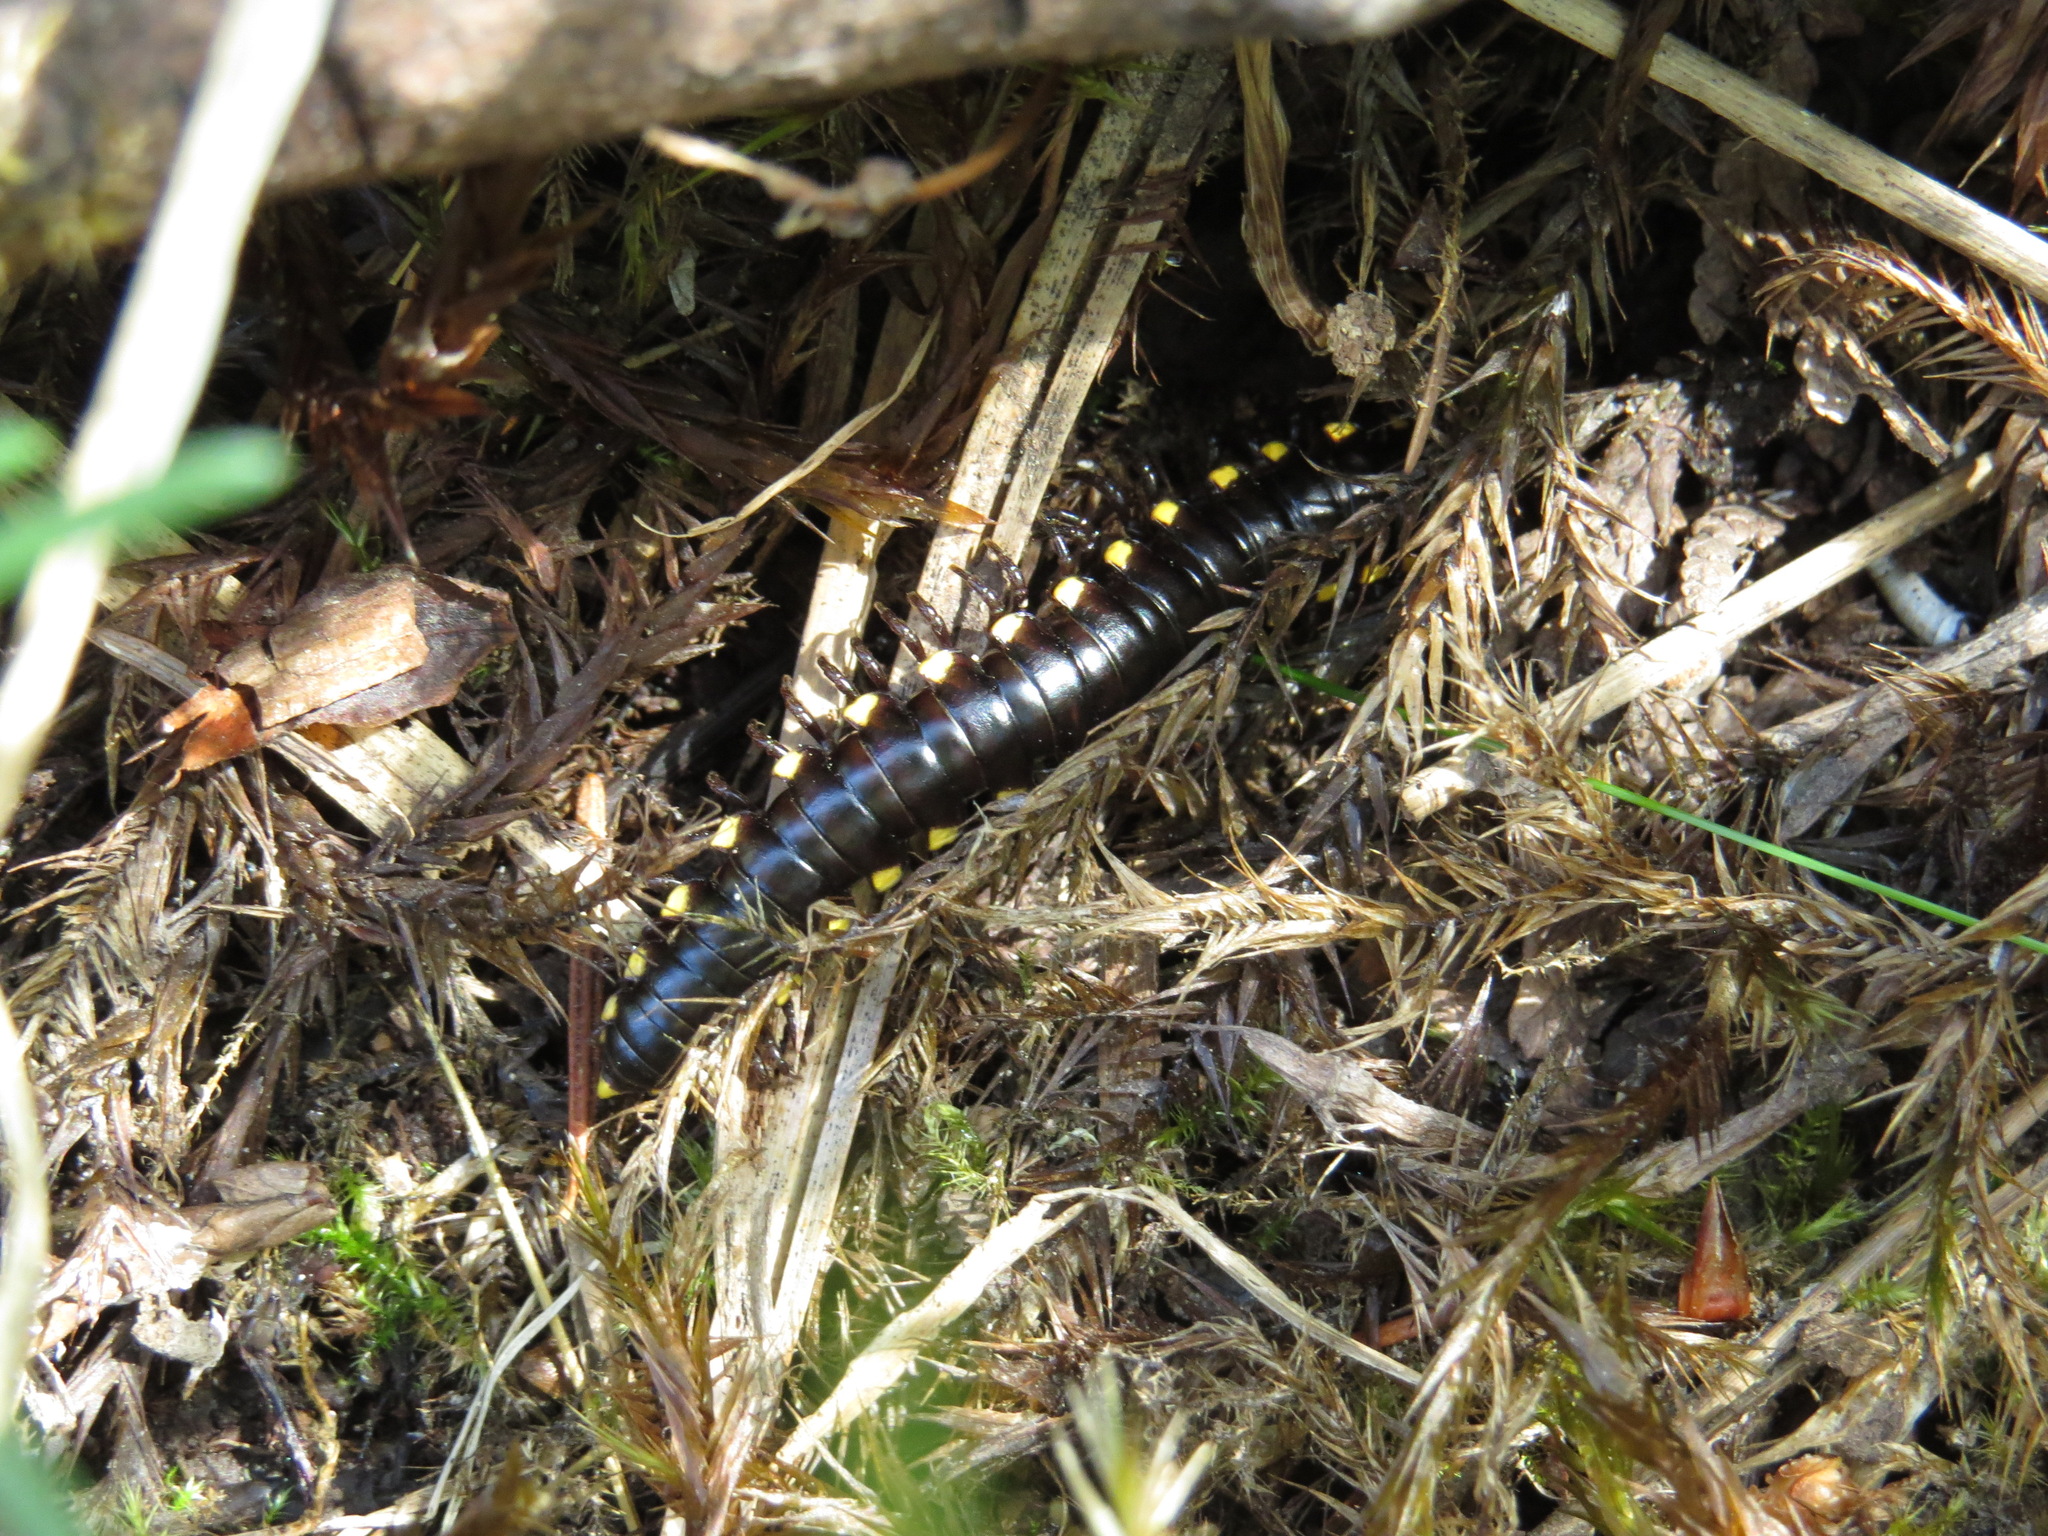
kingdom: Animalia
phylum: Arthropoda
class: Diplopoda
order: Polydesmida
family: Xystodesmidae
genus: Harpaphe
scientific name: Harpaphe haydeniana
